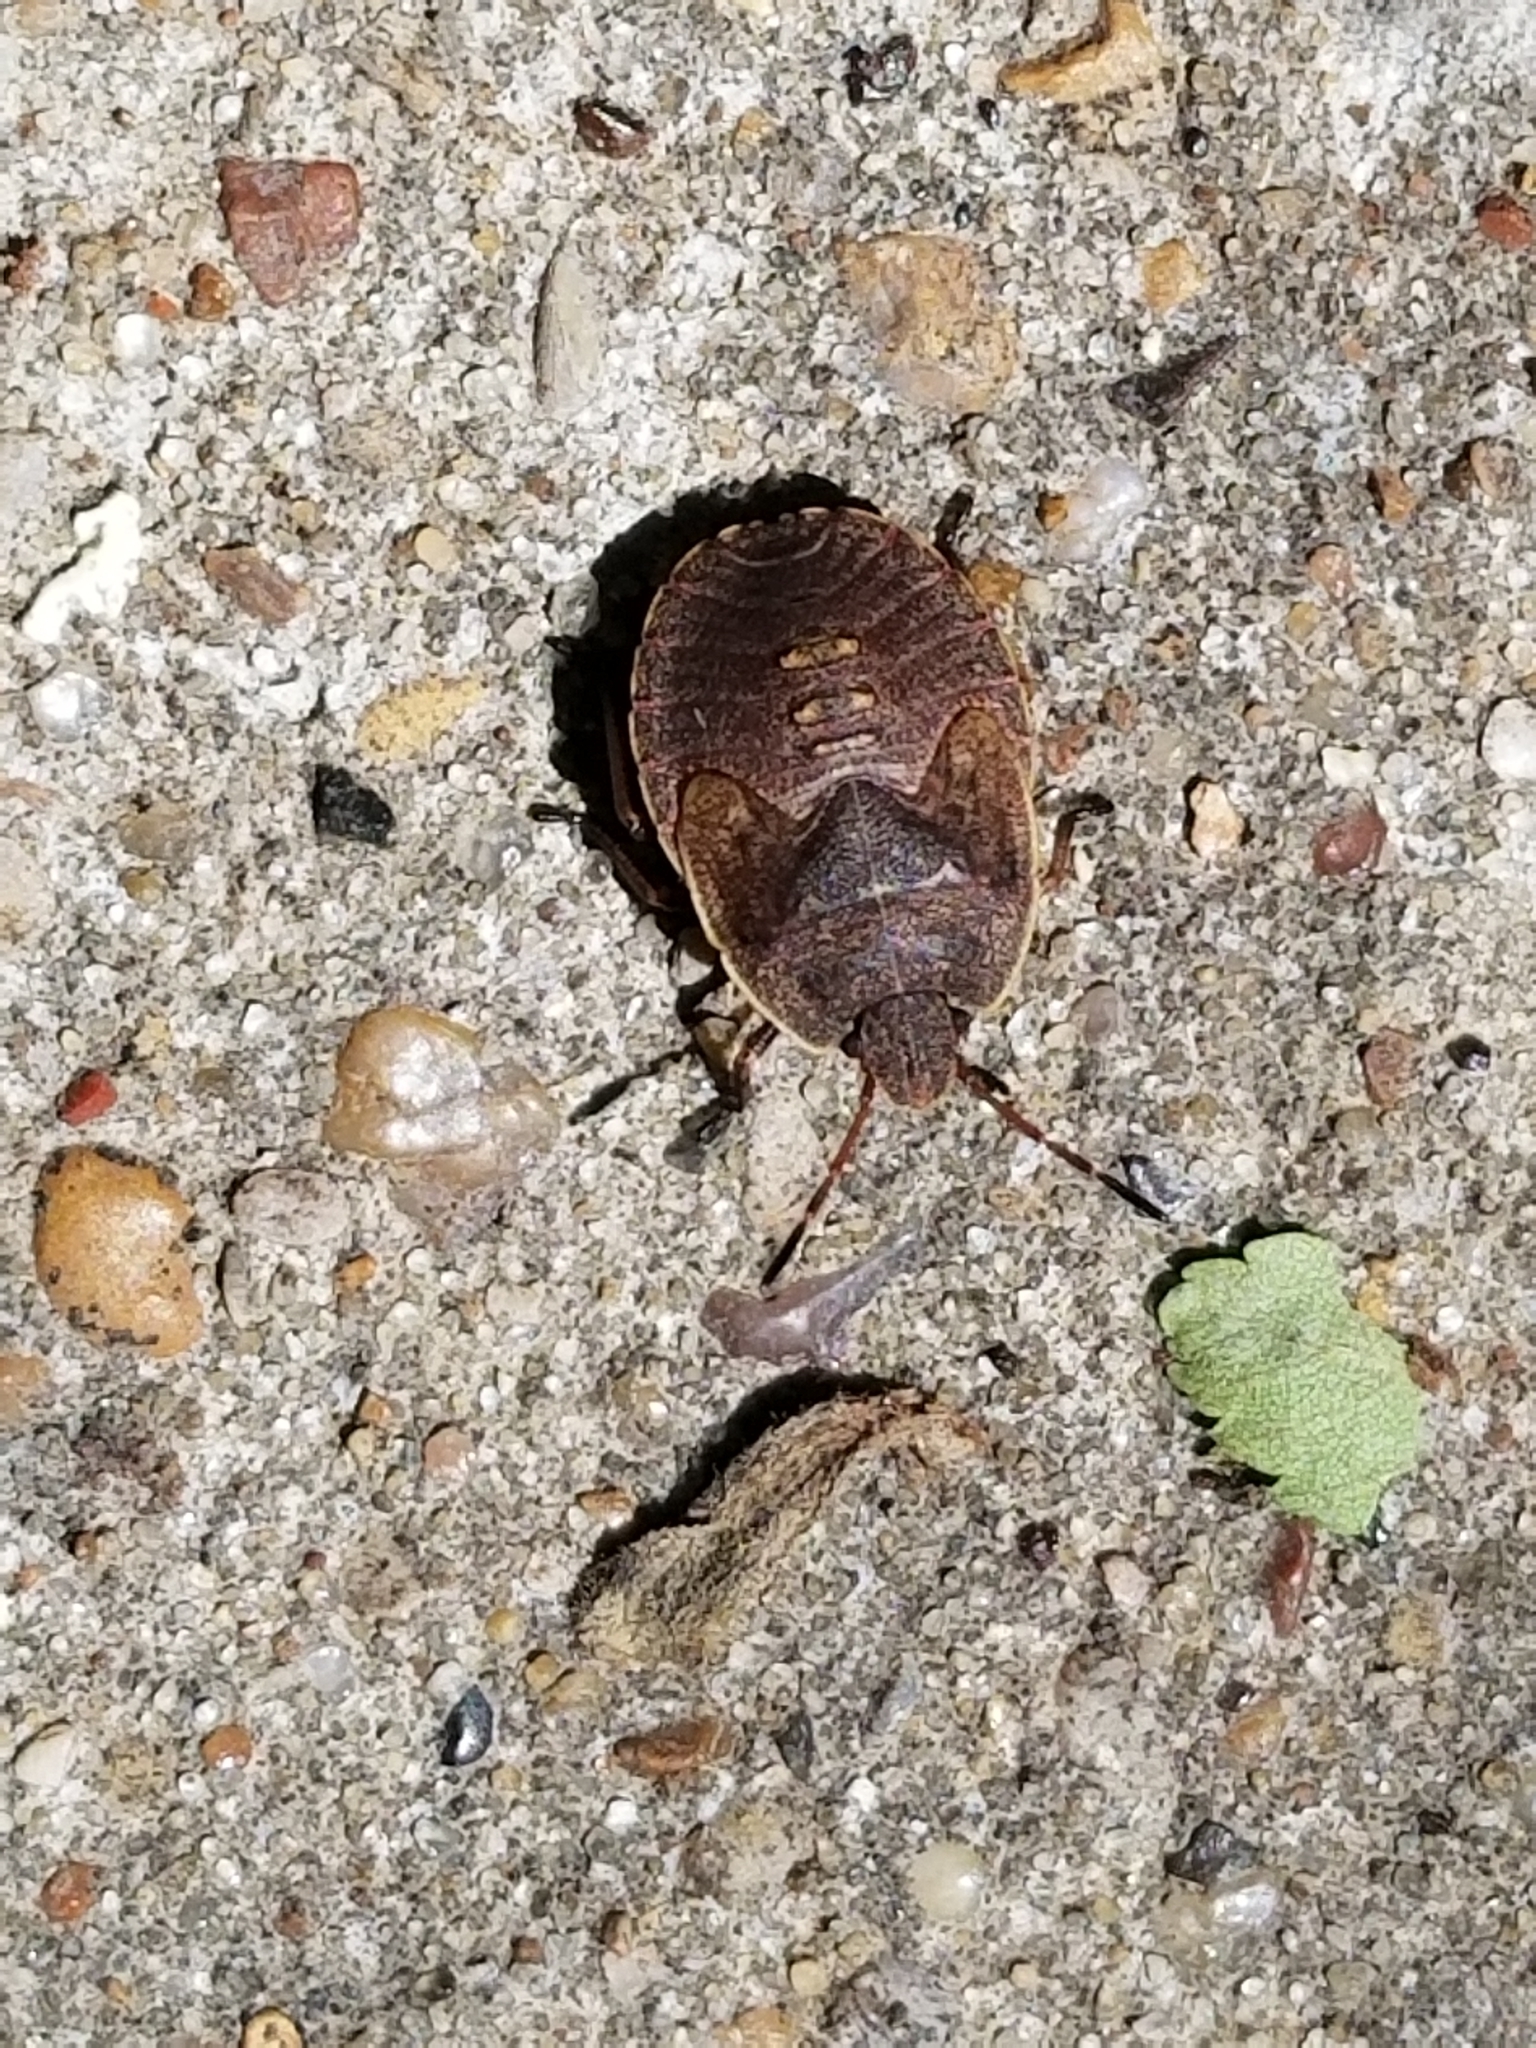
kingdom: Animalia
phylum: Arthropoda
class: Insecta
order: Hemiptera
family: Pentatomidae
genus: Menecles
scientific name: Menecles insertus
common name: Elf shoe stink bug
